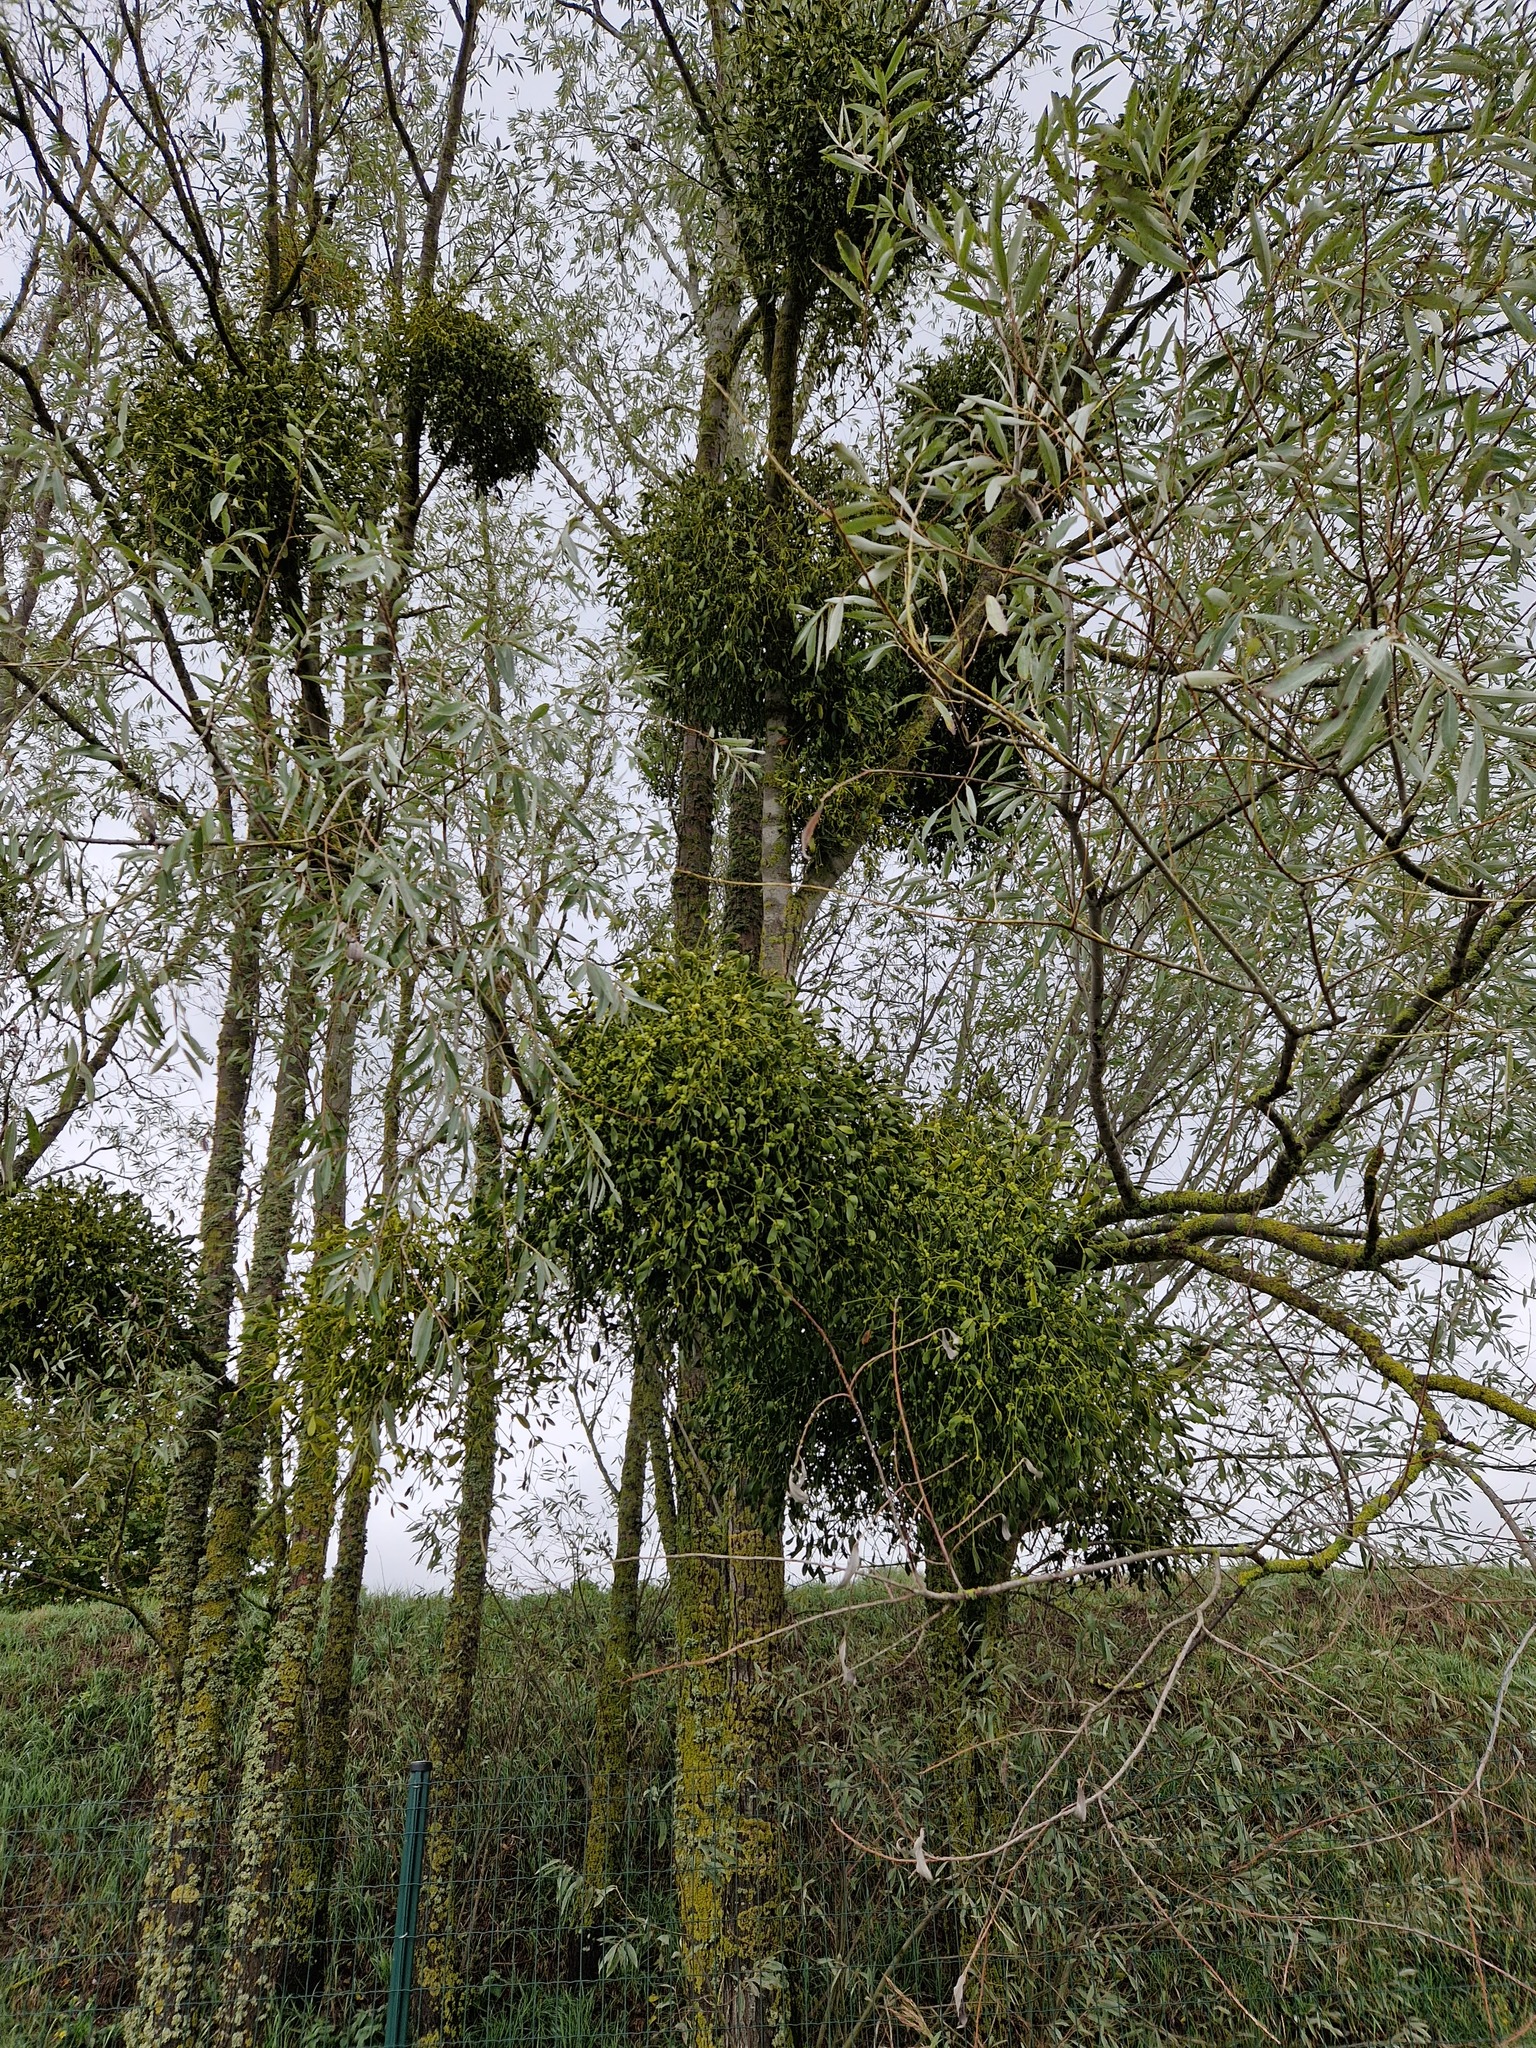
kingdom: Plantae
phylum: Tracheophyta
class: Magnoliopsida
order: Santalales
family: Viscaceae
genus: Viscum
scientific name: Viscum album
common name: Mistletoe
